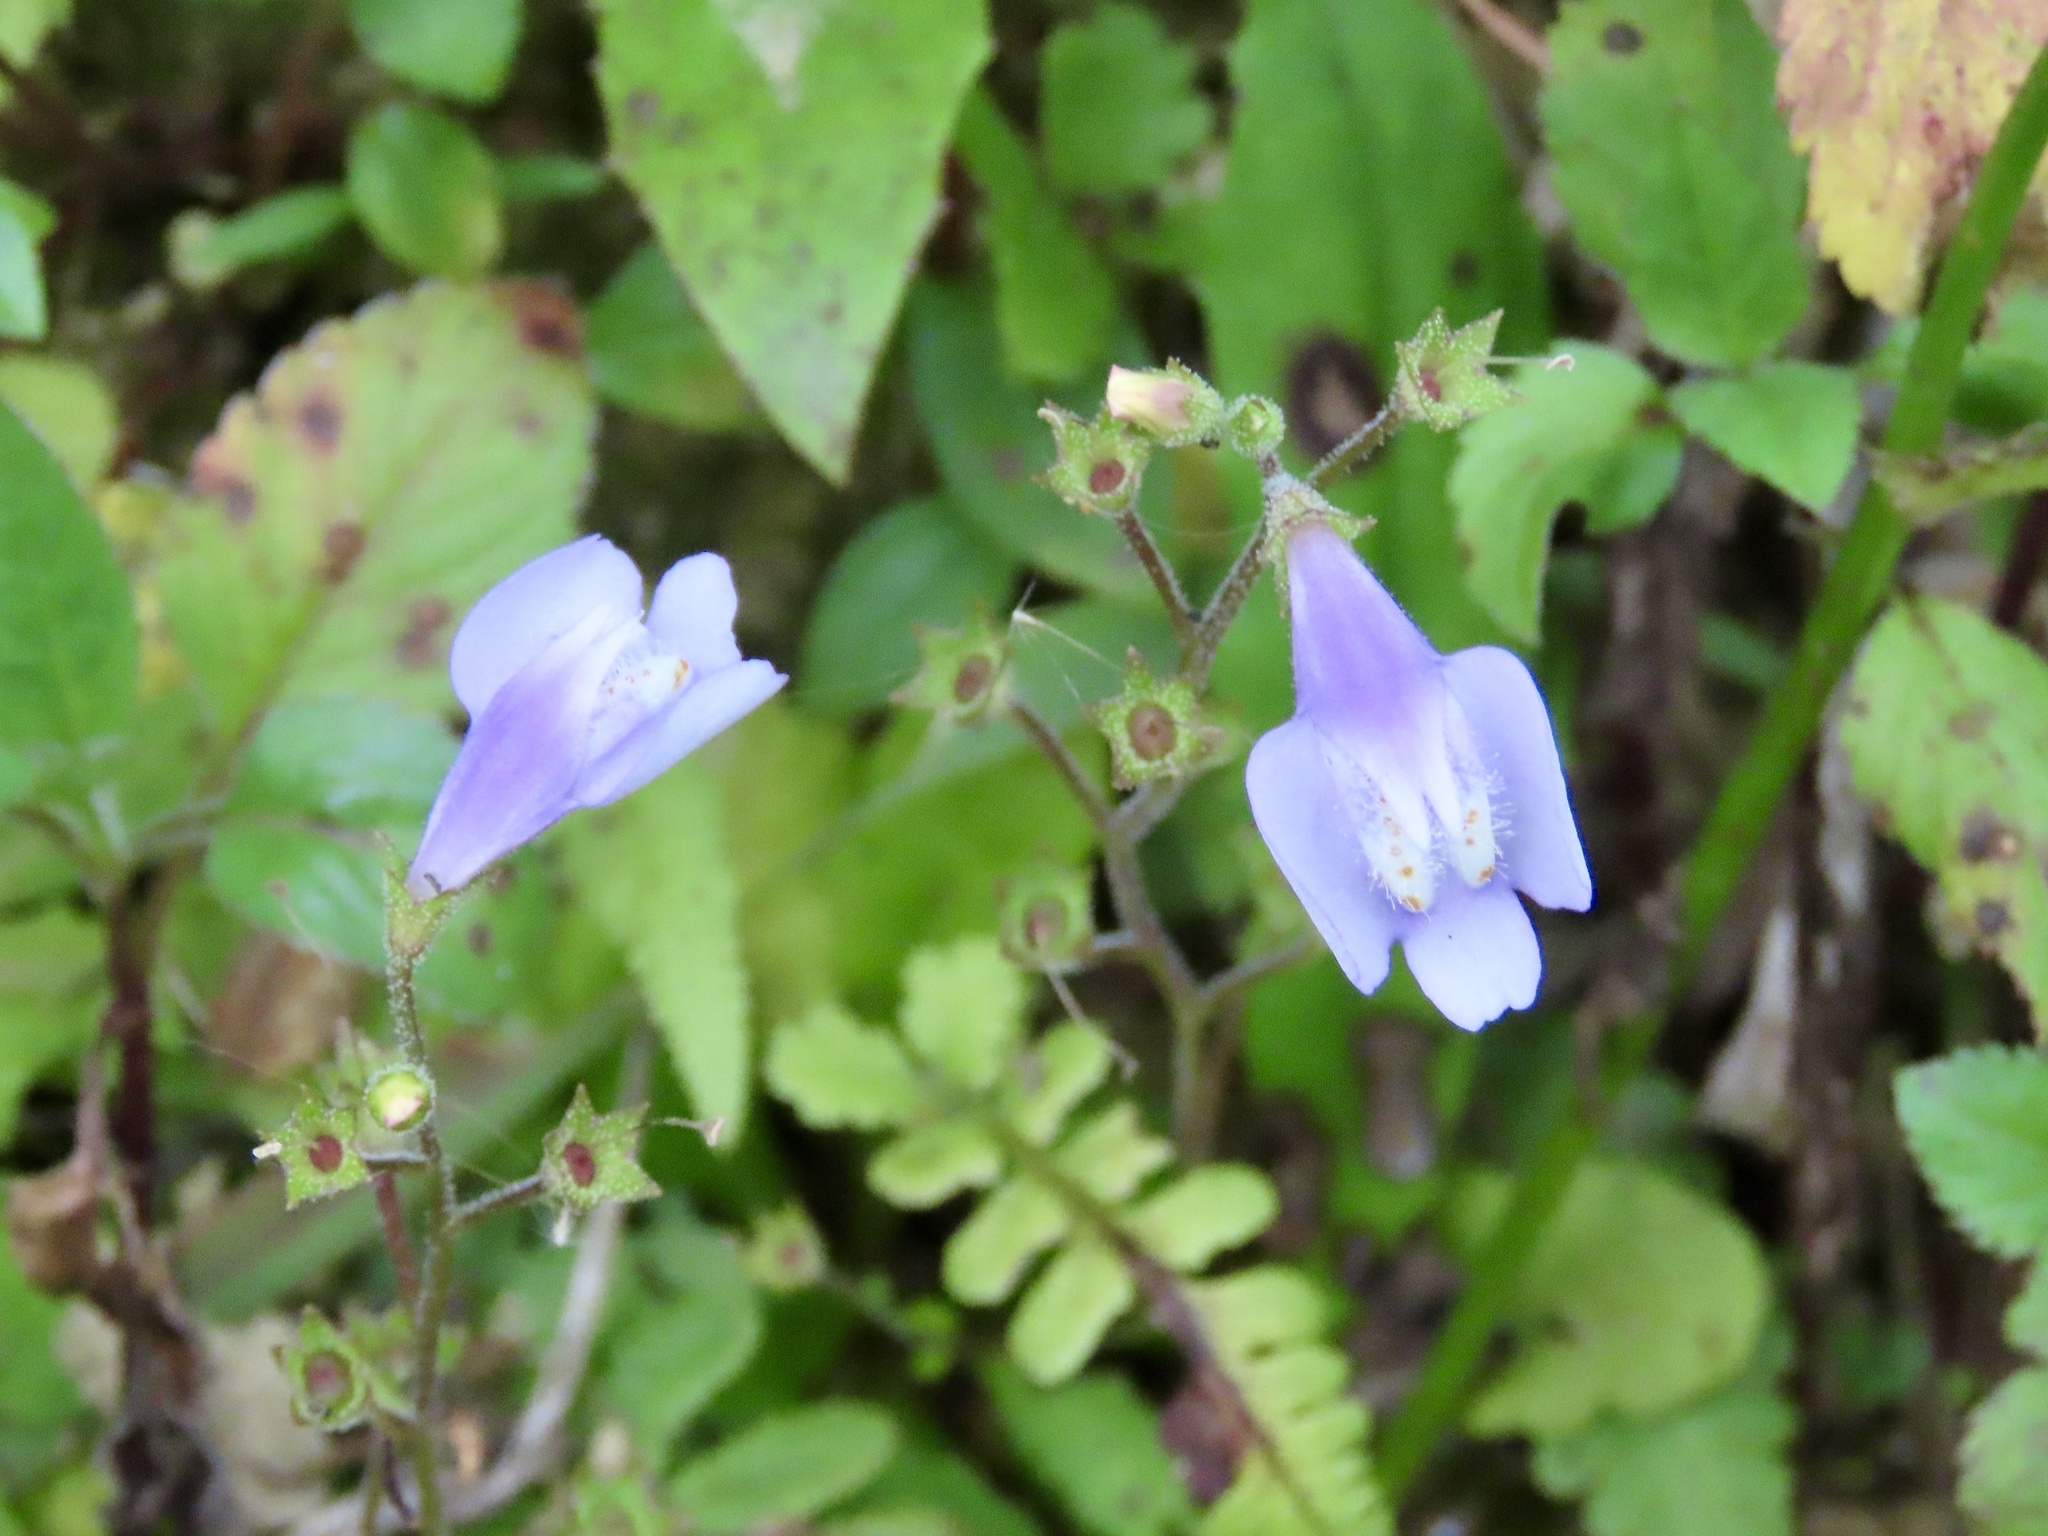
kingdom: Plantae
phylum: Tracheophyta
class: Magnoliopsida
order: Lamiales
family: Mazaceae
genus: Mazus
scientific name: Mazus fauriei
